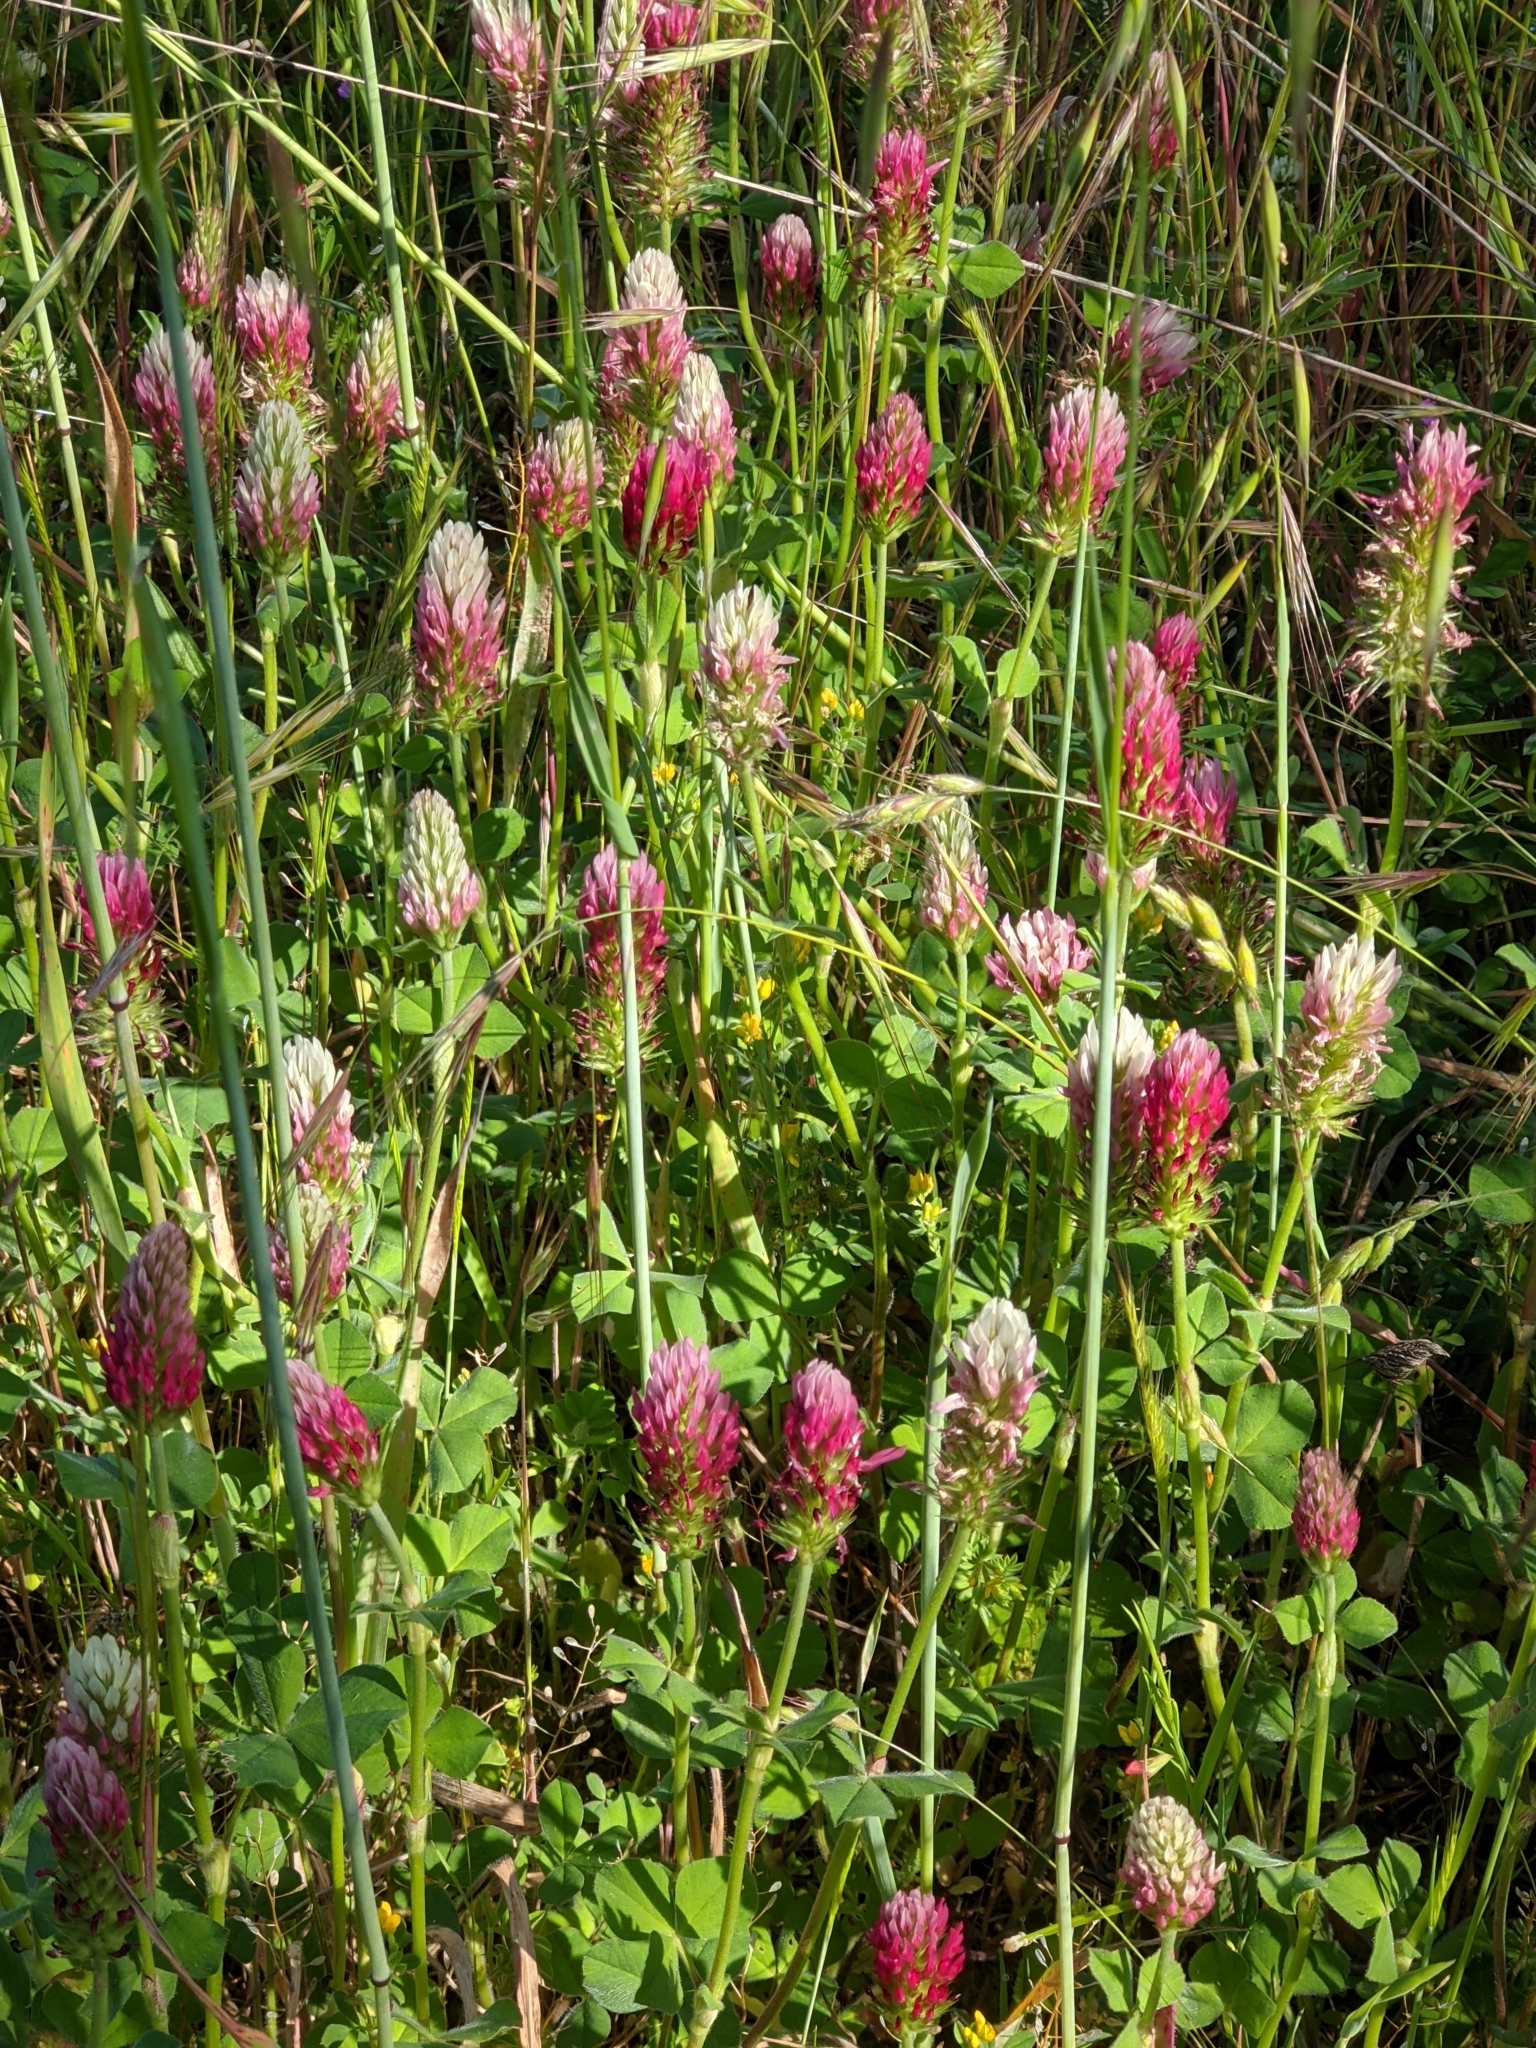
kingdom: Plantae
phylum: Tracheophyta
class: Magnoliopsida
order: Fabales
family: Fabaceae
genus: Trifolium
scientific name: Trifolium incarnatum
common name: Crimson clover
